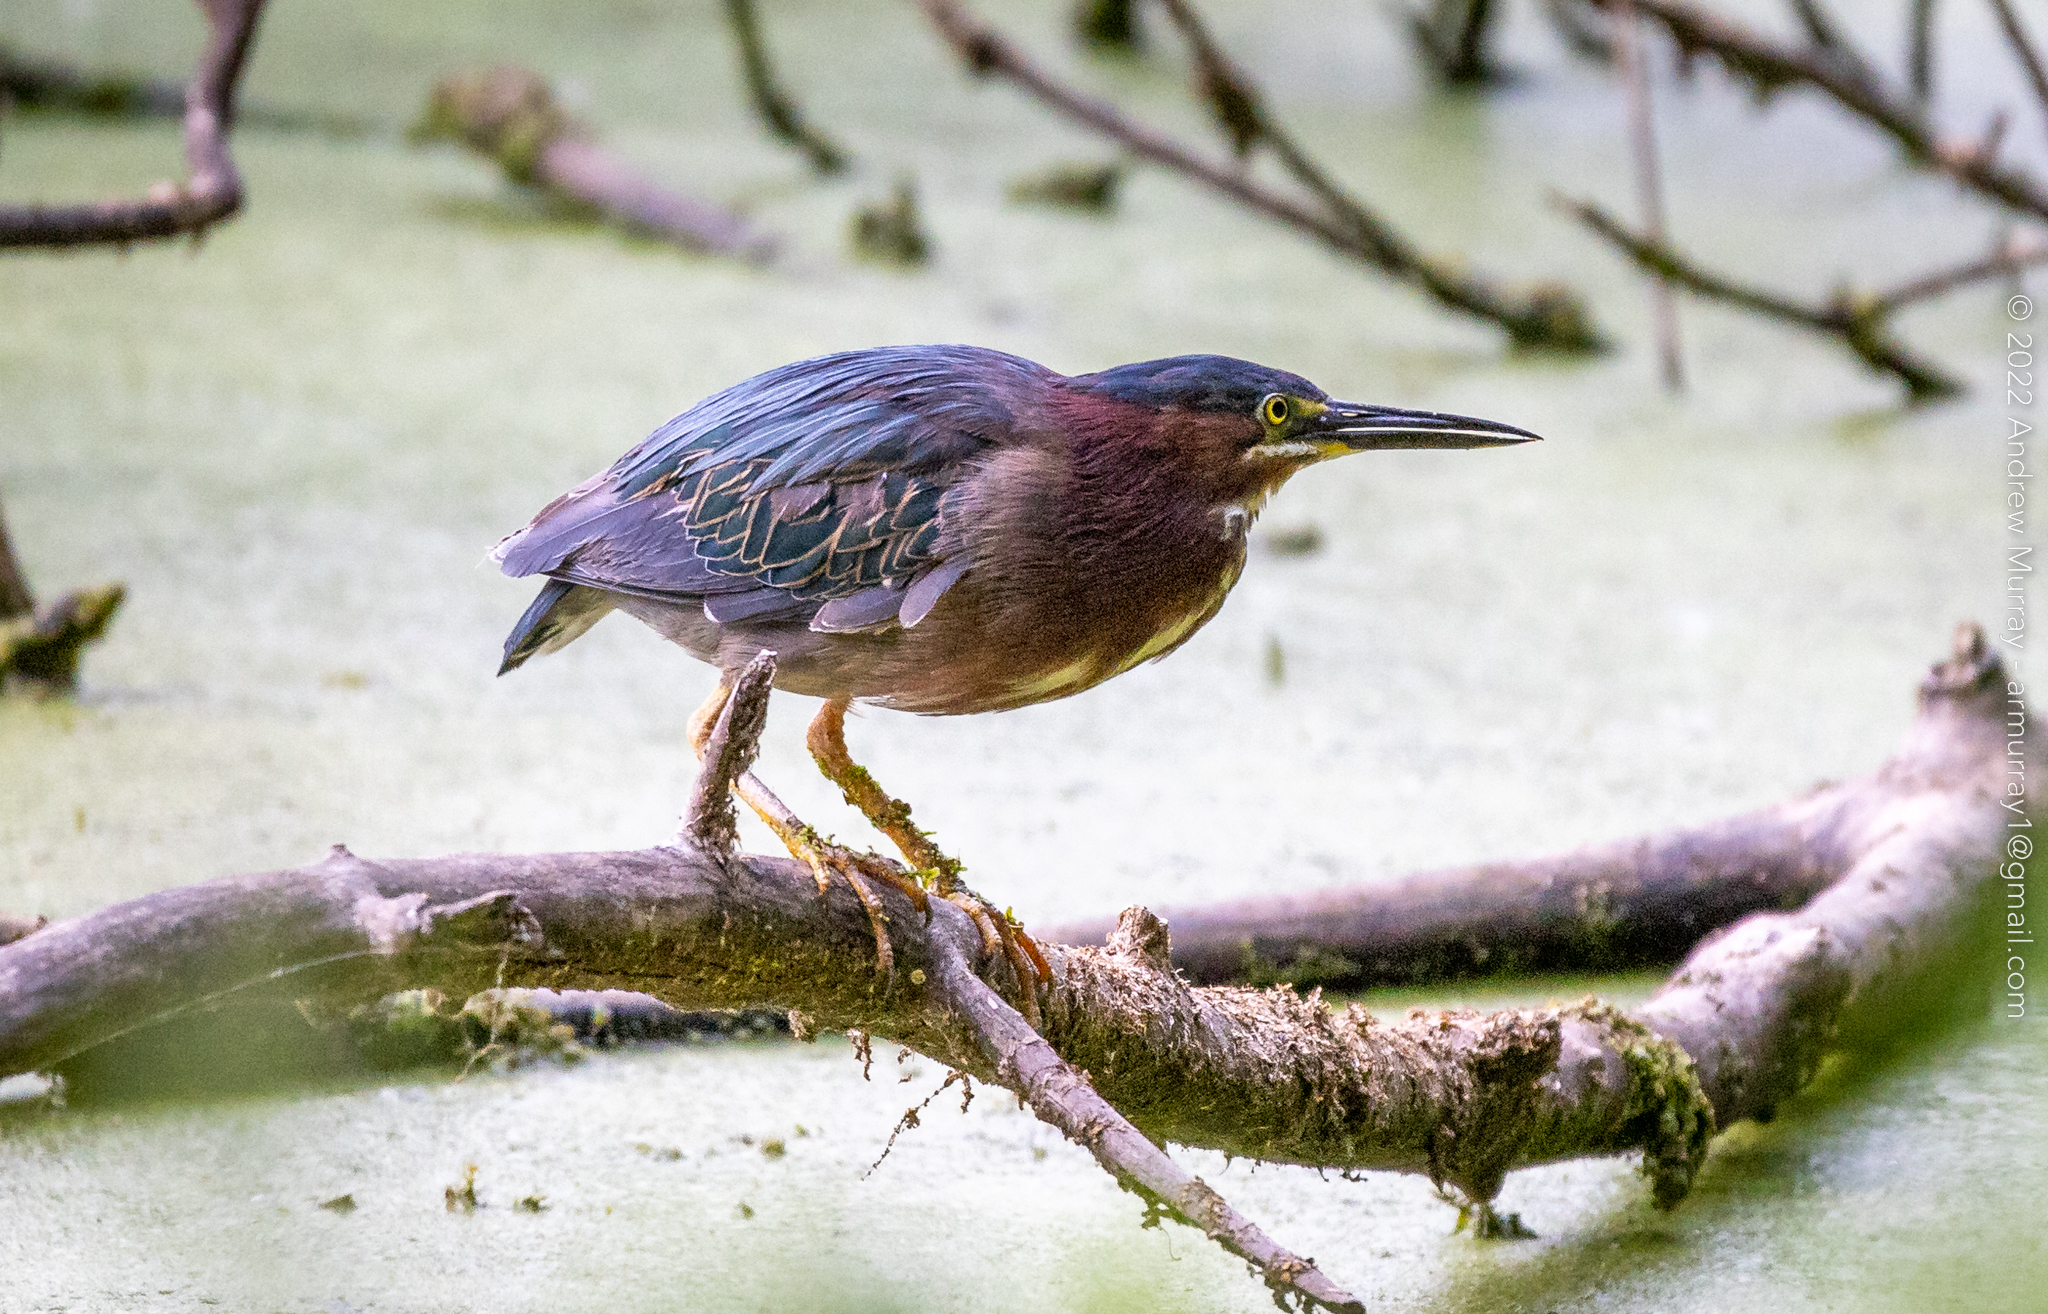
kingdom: Animalia
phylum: Chordata
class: Aves
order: Pelecaniformes
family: Ardeidae
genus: Butorides
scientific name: Butorides virescens
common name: Green heron
